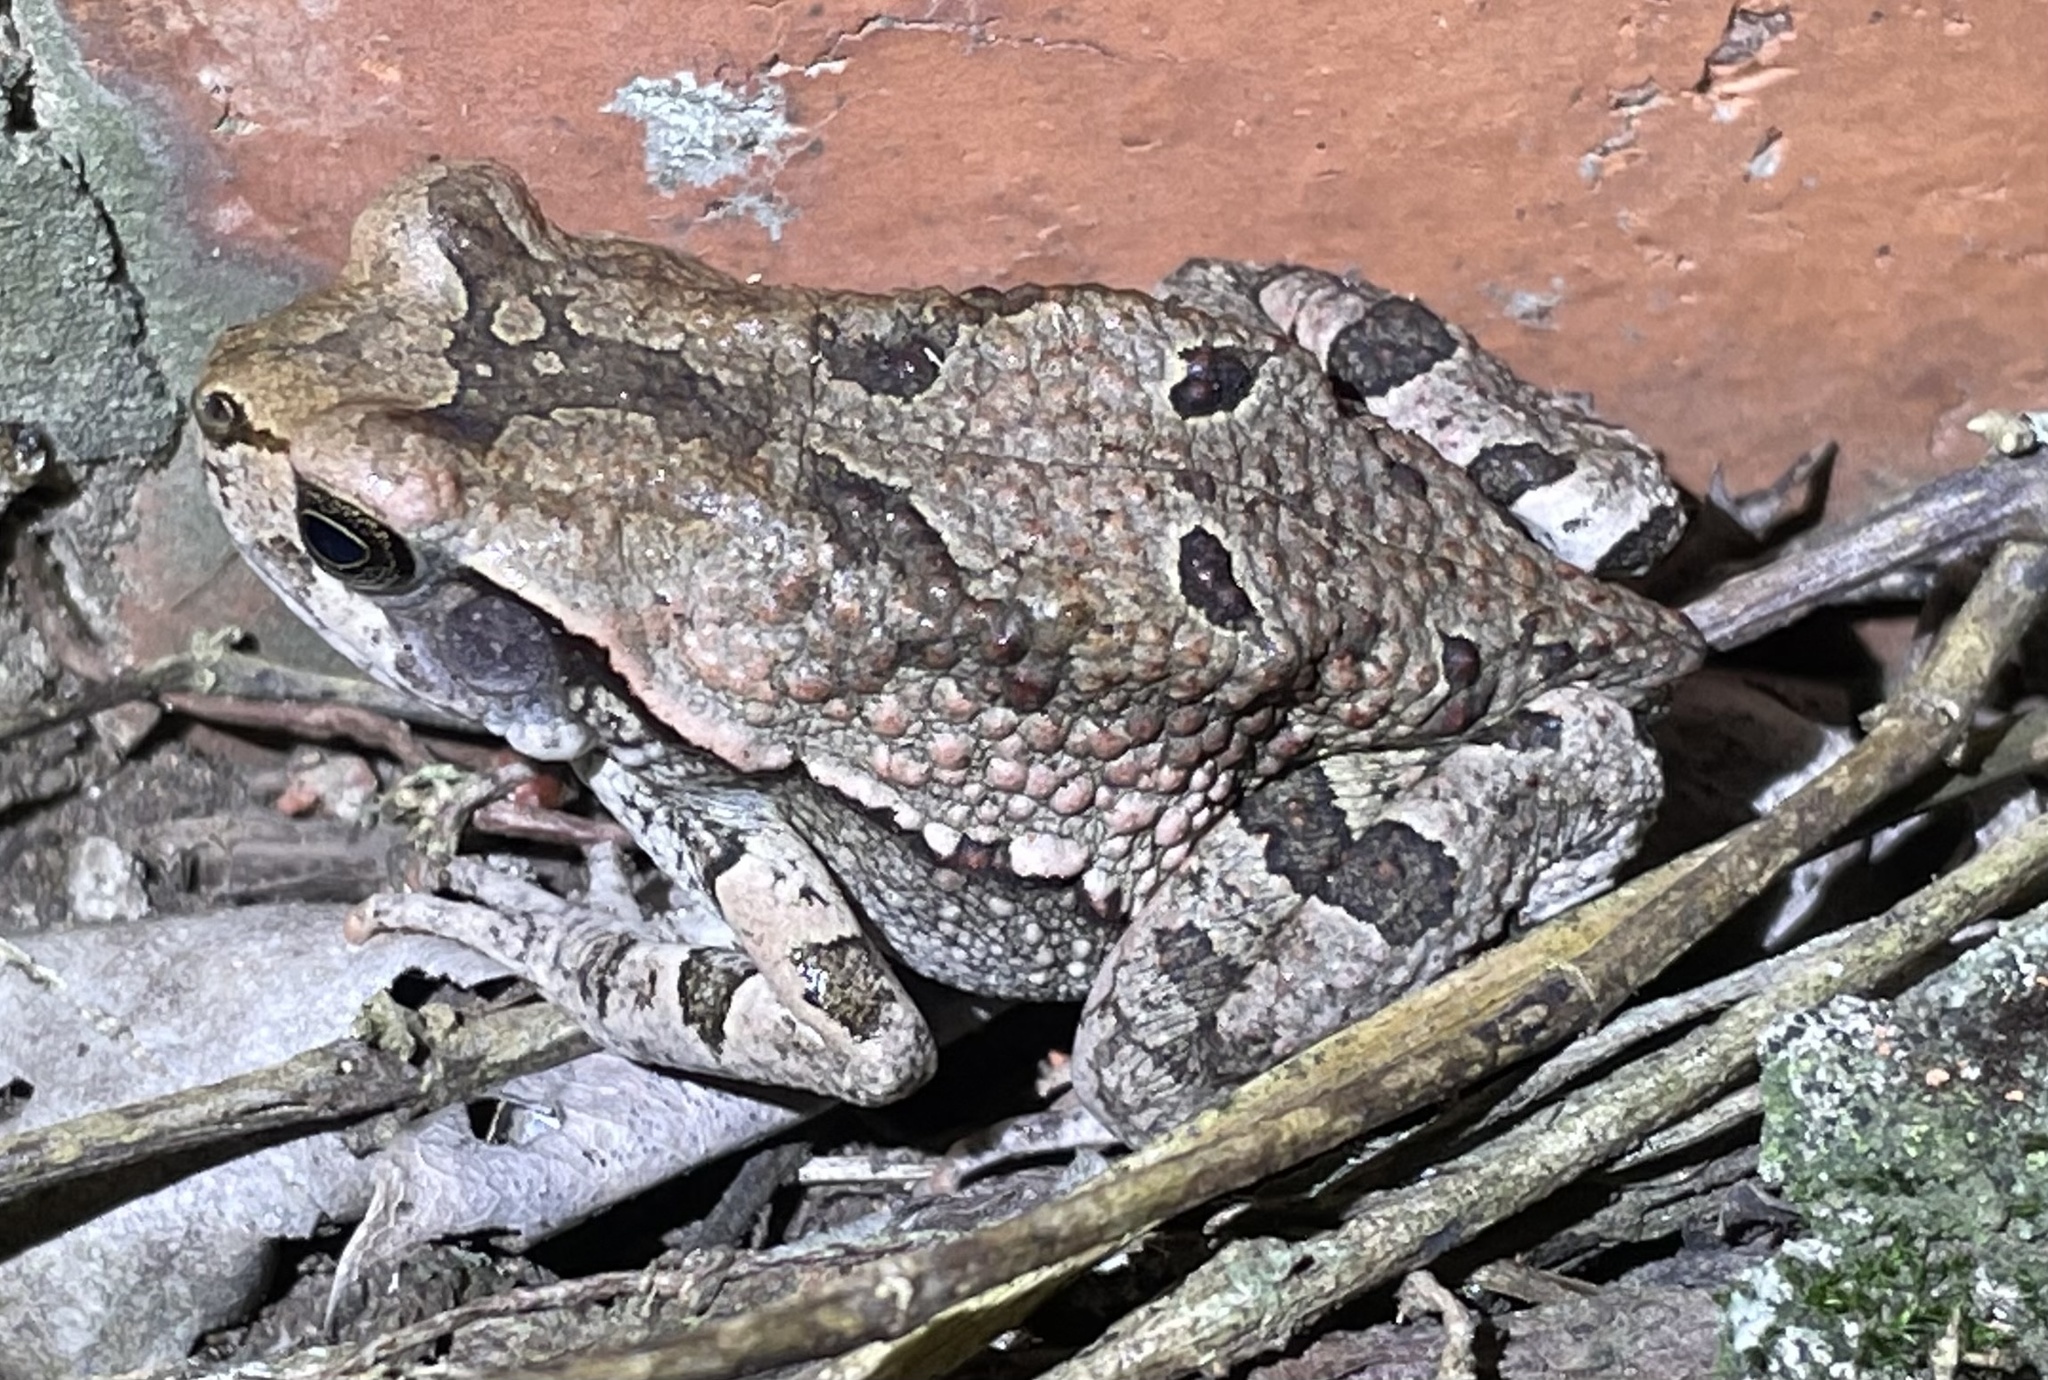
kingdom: Animalia
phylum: Chordata
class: Amphibia
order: Anura
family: Bufonidae
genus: Schismaderma
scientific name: Schismaderma carens
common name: African split-skin toad
